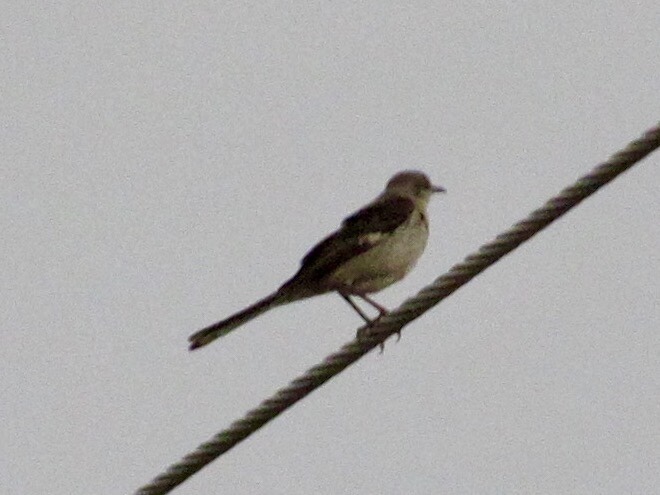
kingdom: Animalia
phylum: Chordata
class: Aves
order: Passeriformes
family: Mimidae
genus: Mimus
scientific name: Mimus polyglottos
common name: Northern mockingbird
